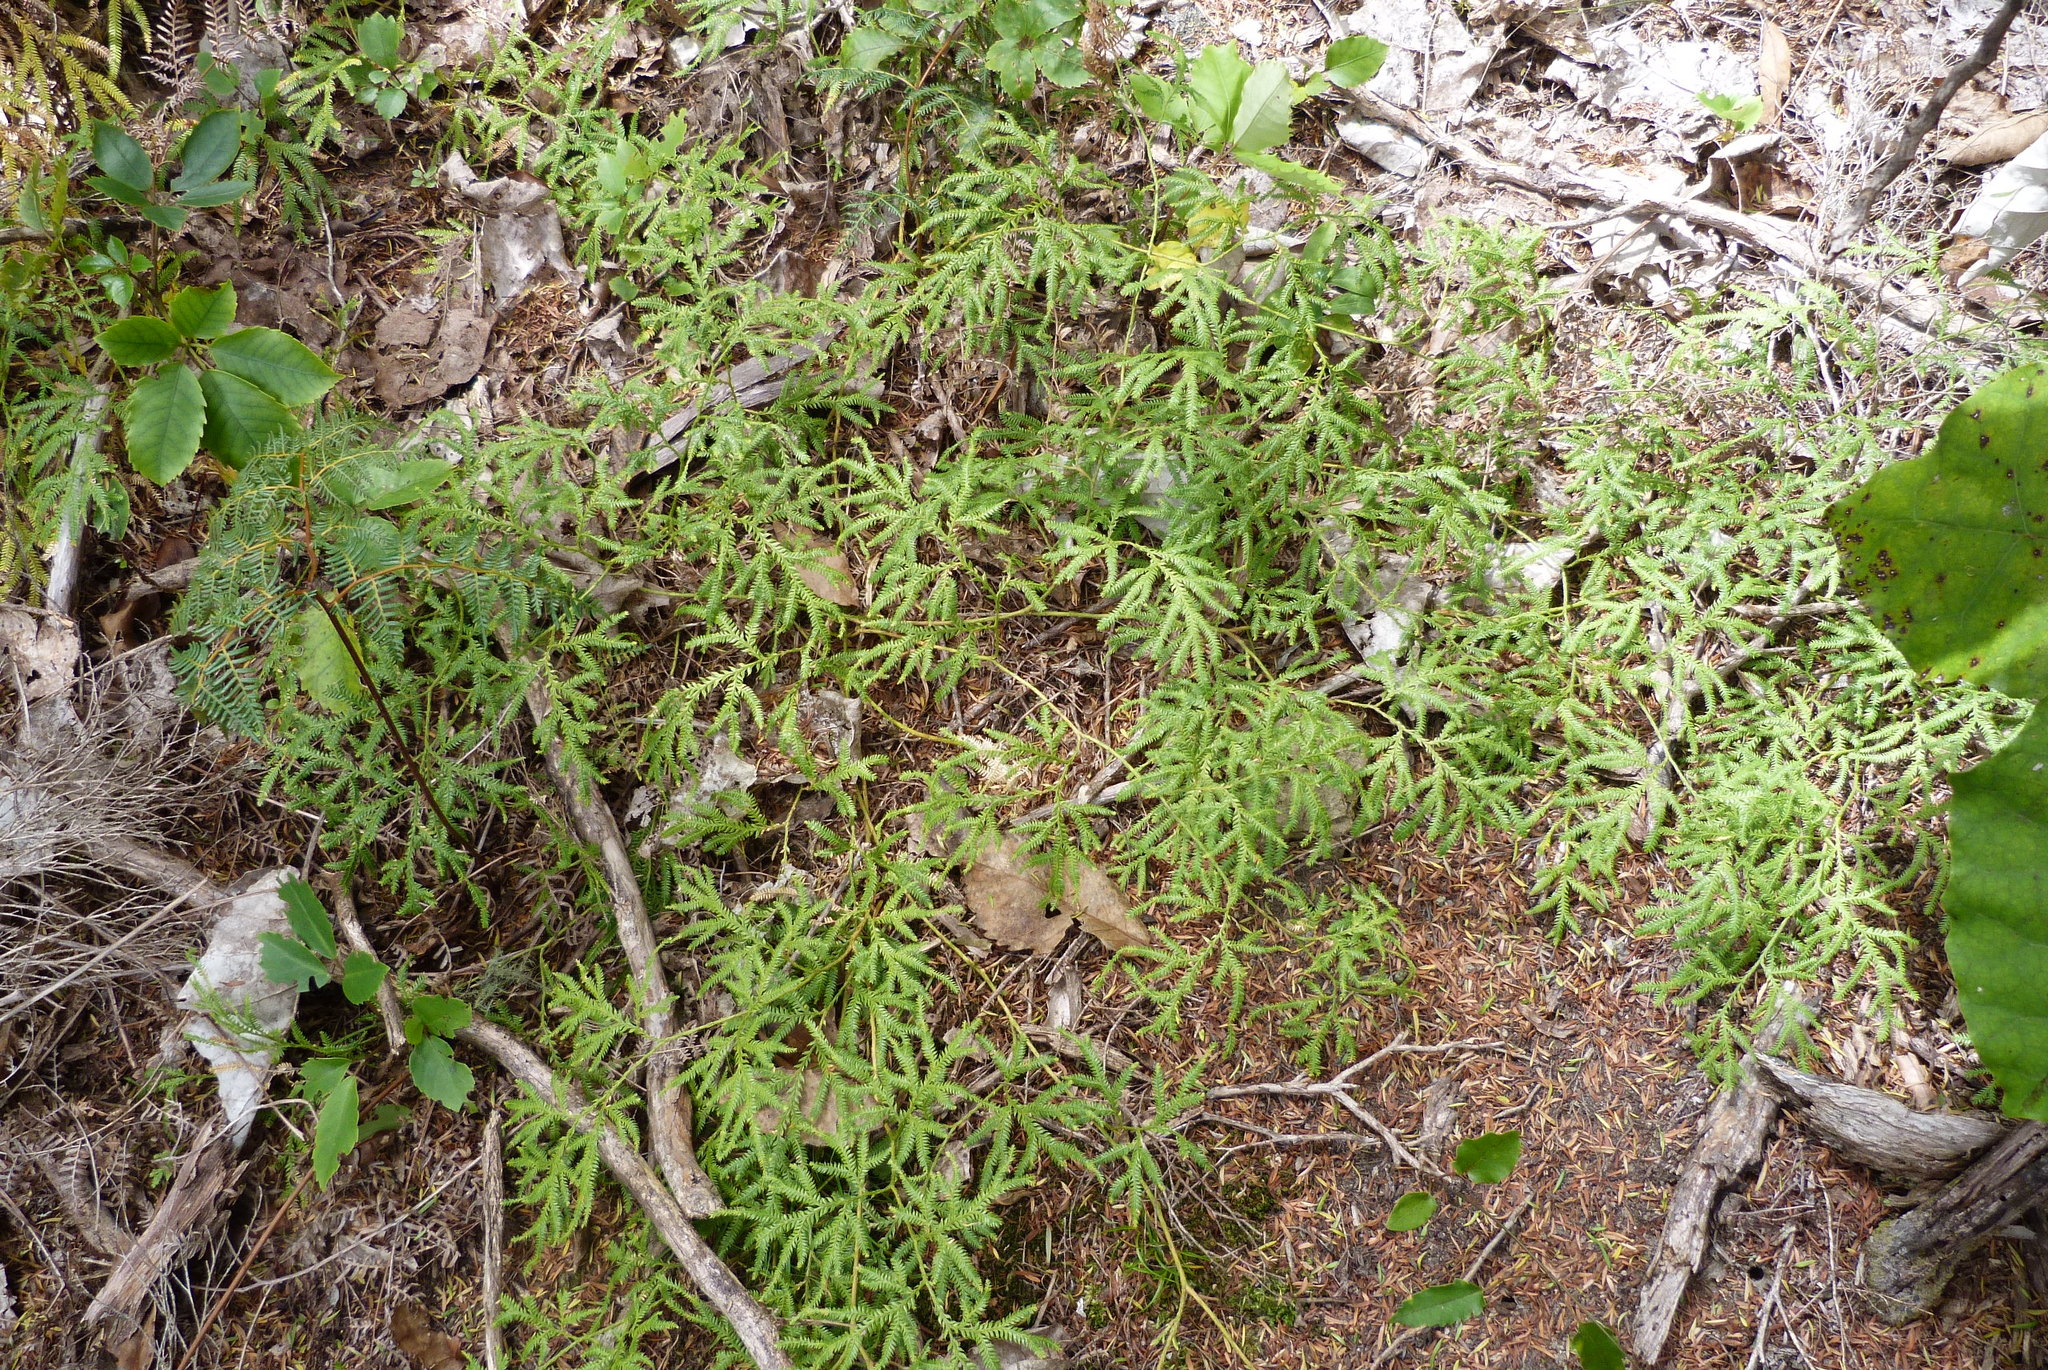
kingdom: Plantae
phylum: Tracheophyta
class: Lycopodiopsida
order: Lycopodiales
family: Lycopodiaceae
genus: Lycopodium
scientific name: Lycopodium volubile
